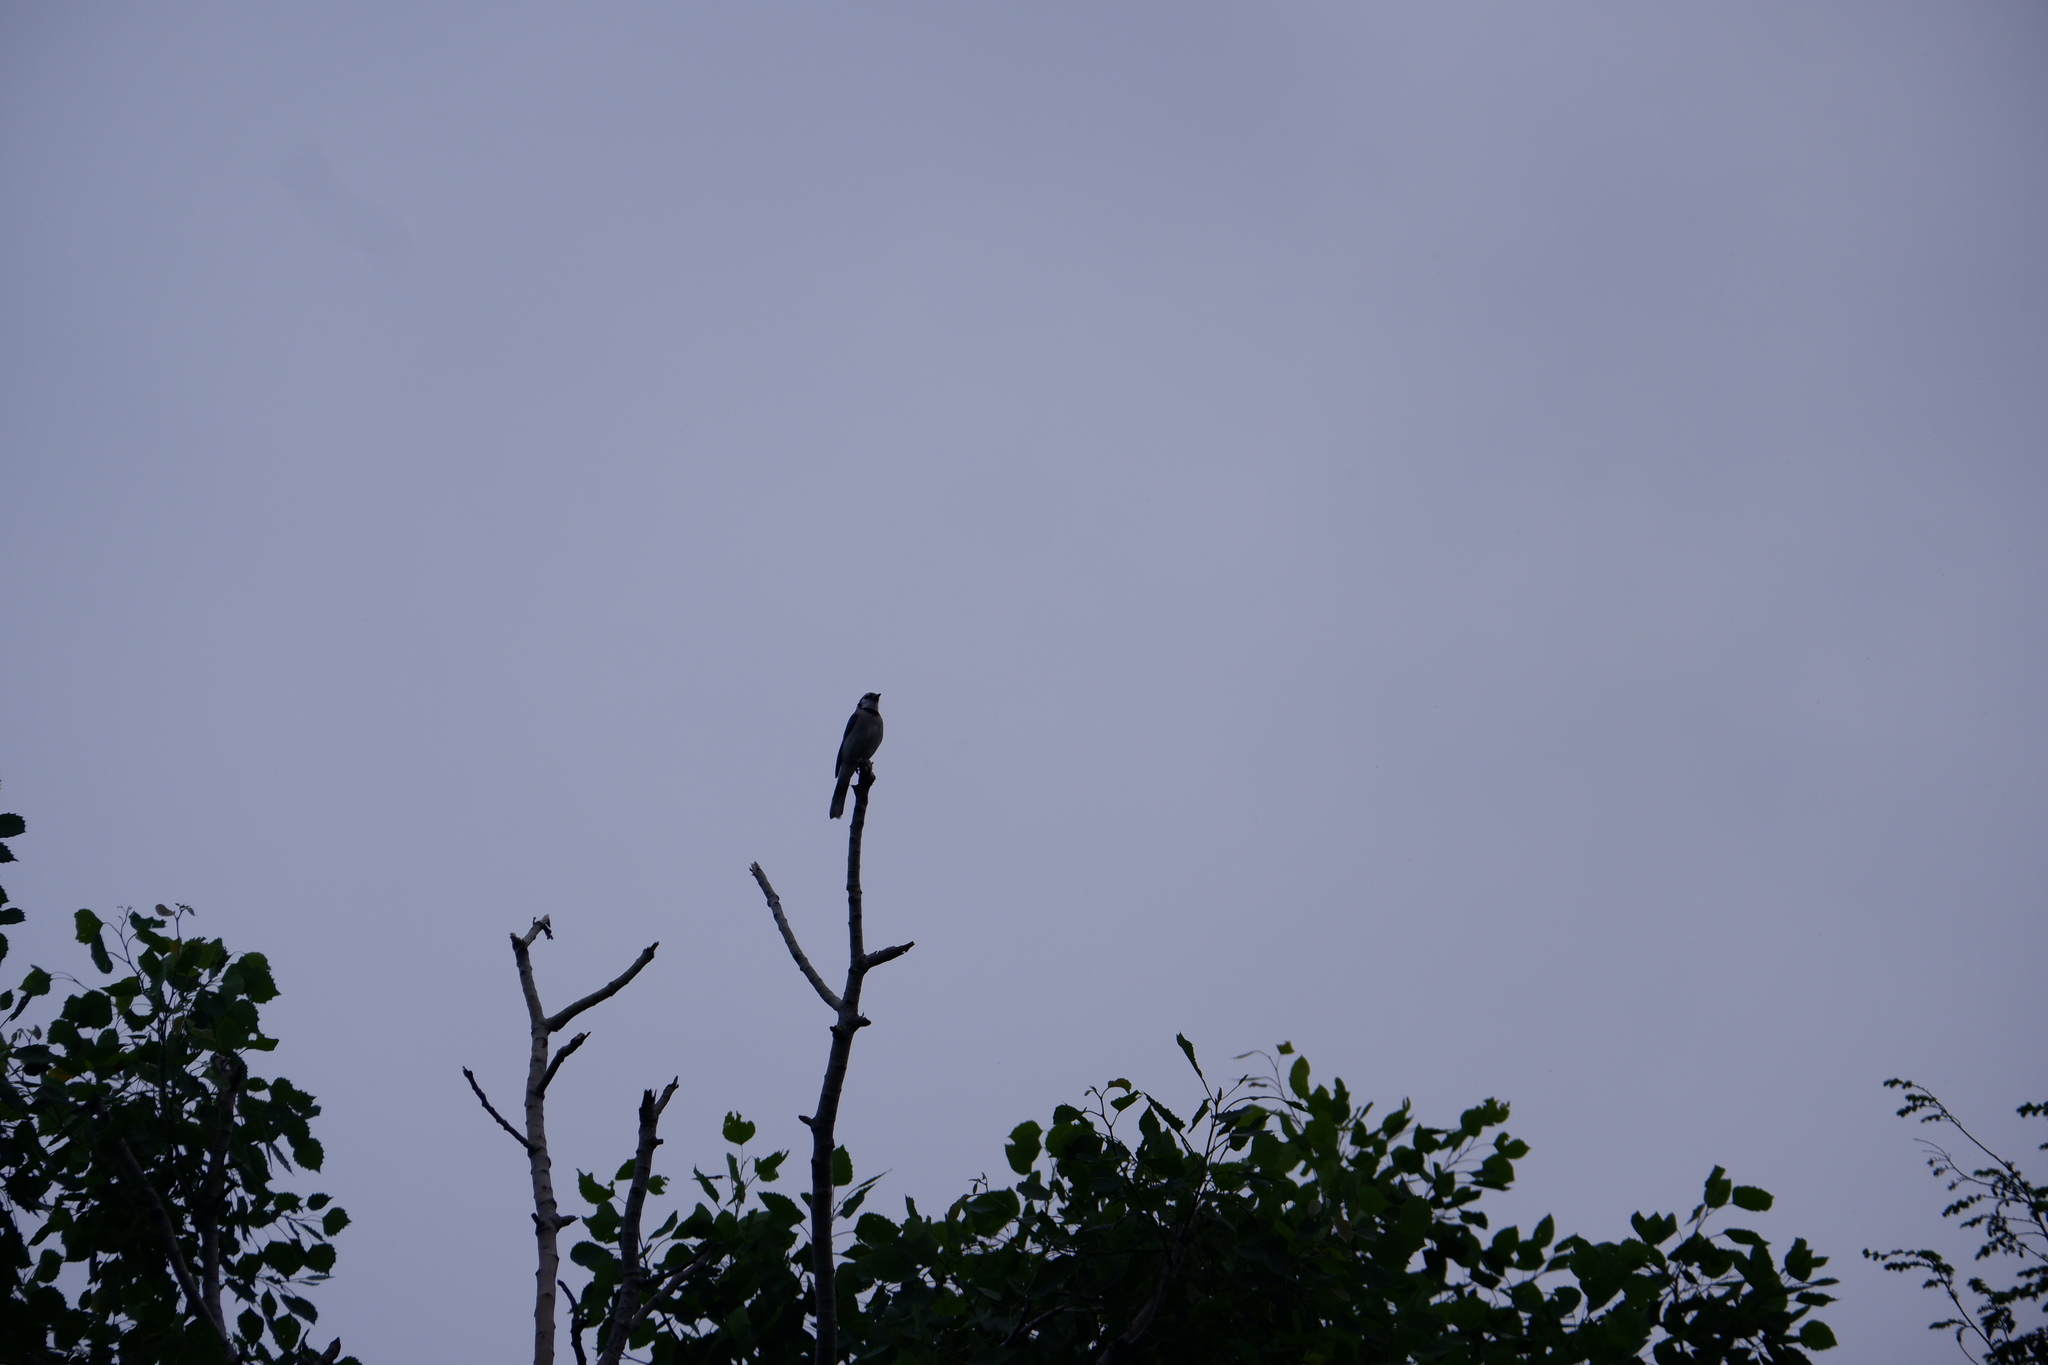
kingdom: Animalia
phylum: Chordata
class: Aves
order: Passeriformes
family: Corvidae
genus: Cyanocitta
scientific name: Cyanocitta cristata
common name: Blue jay
